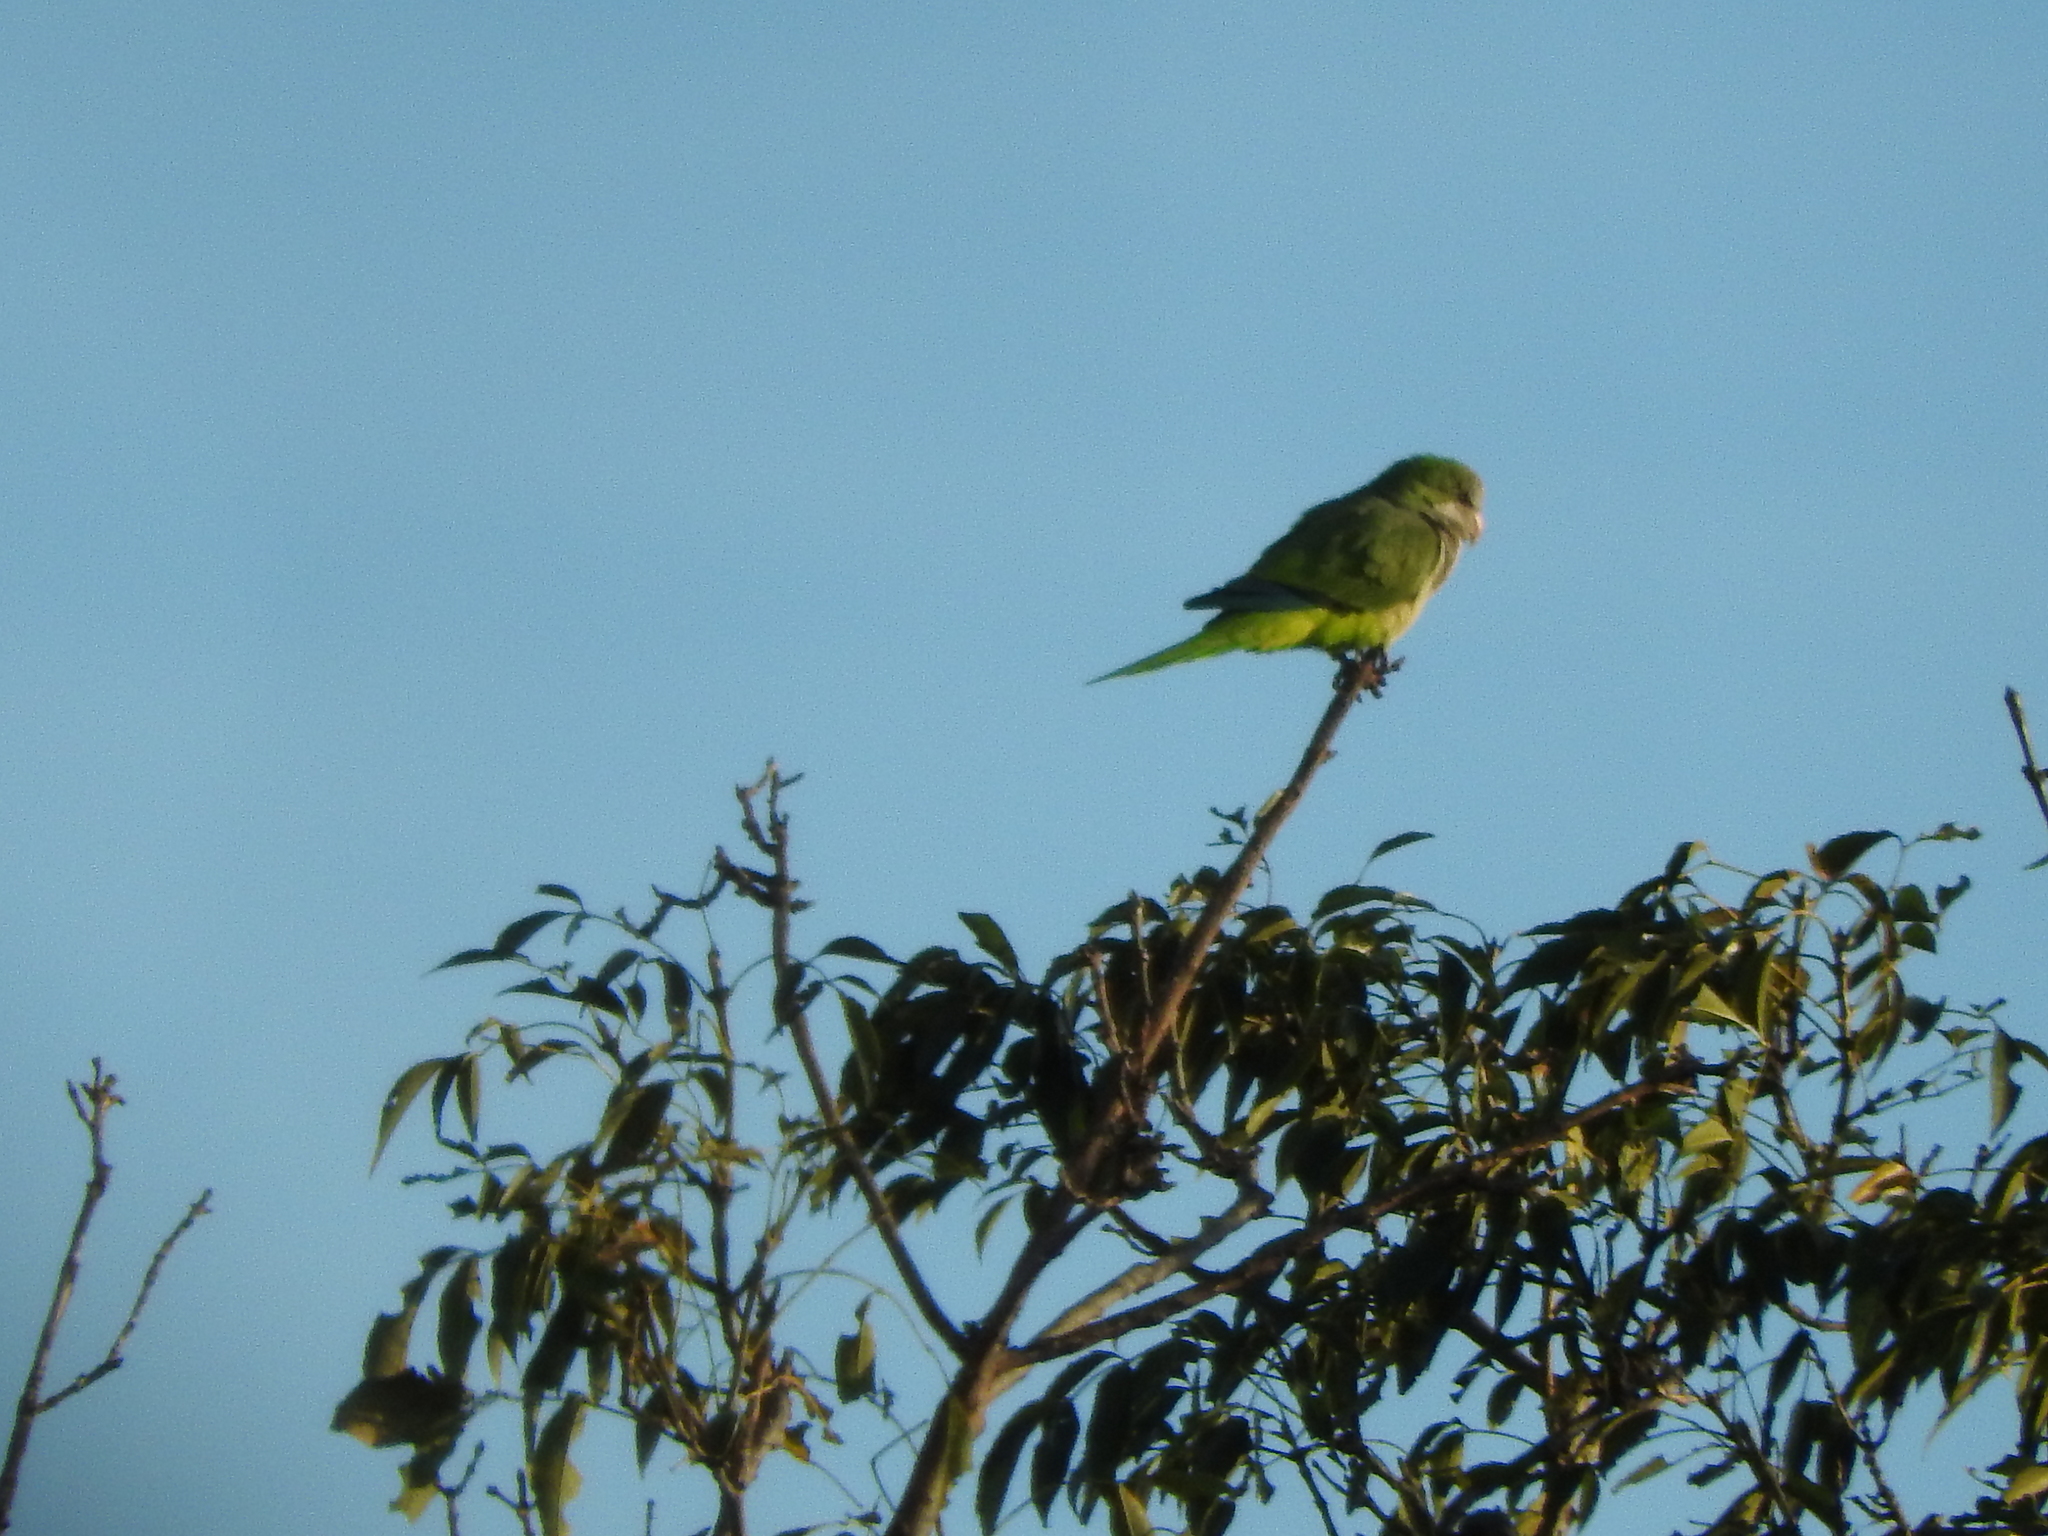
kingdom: Animalia
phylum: Chordata
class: Aves
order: Psittaciformes
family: Psittacidae
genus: Myiopsitta
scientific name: Myiopsitta monachus
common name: Monk parakeet
